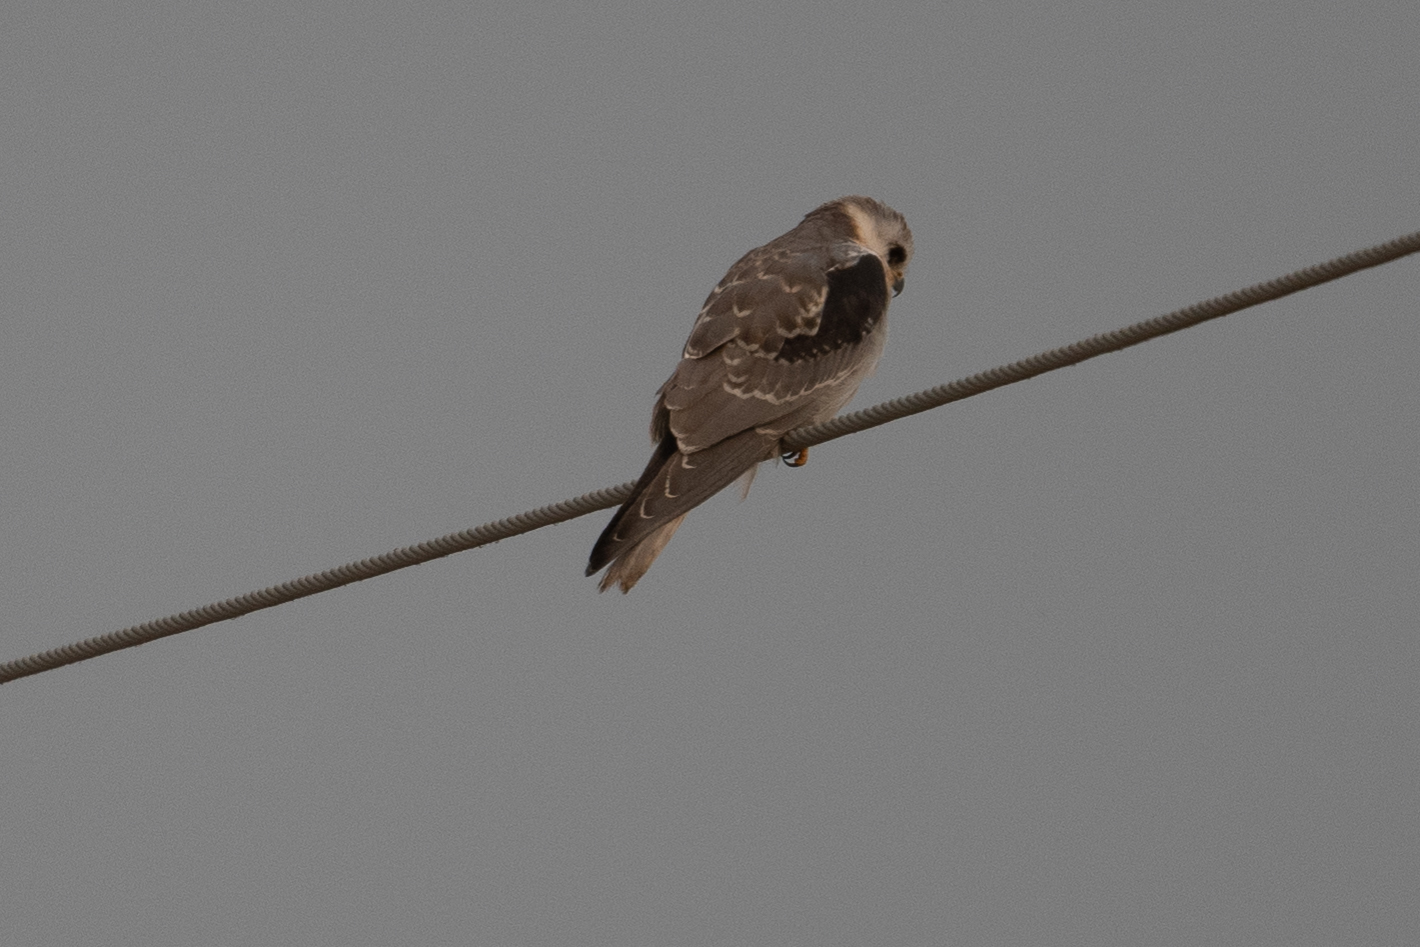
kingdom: Animalia
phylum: Chordata
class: Aves
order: Accipitriformes
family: Accipitridae
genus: Elanus
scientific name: Elanus leucurus
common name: White-tailed kite
